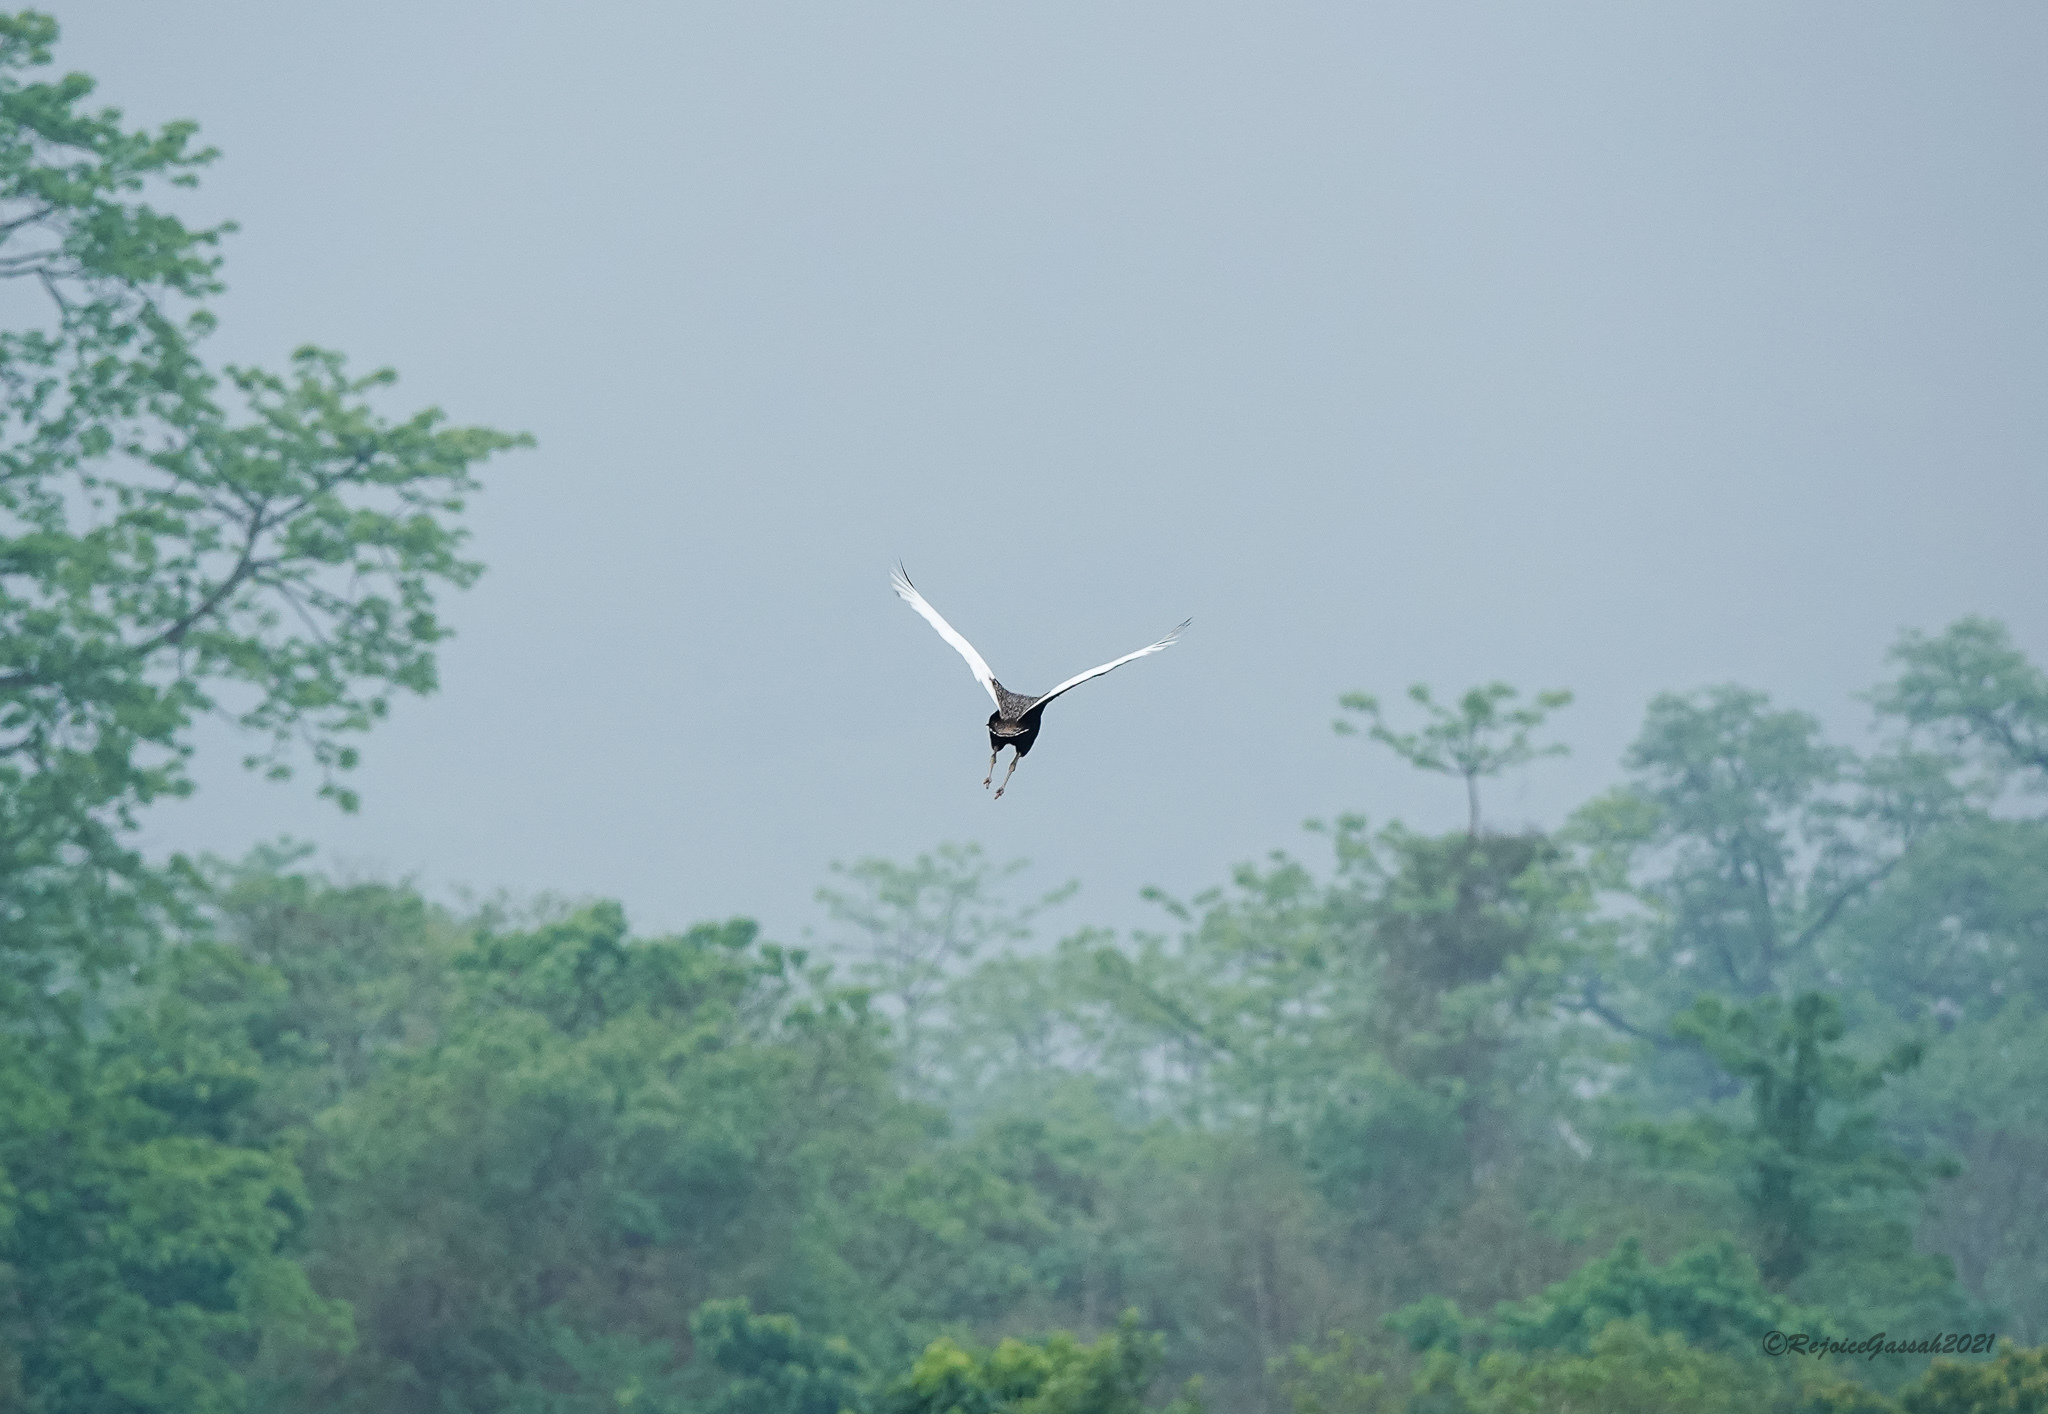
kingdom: Animalia
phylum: Chordata
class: Aves
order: Otidiformes
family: Otididae
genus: Houbaropsis
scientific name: Houbaropsis bengalensis
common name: Bengal florican
